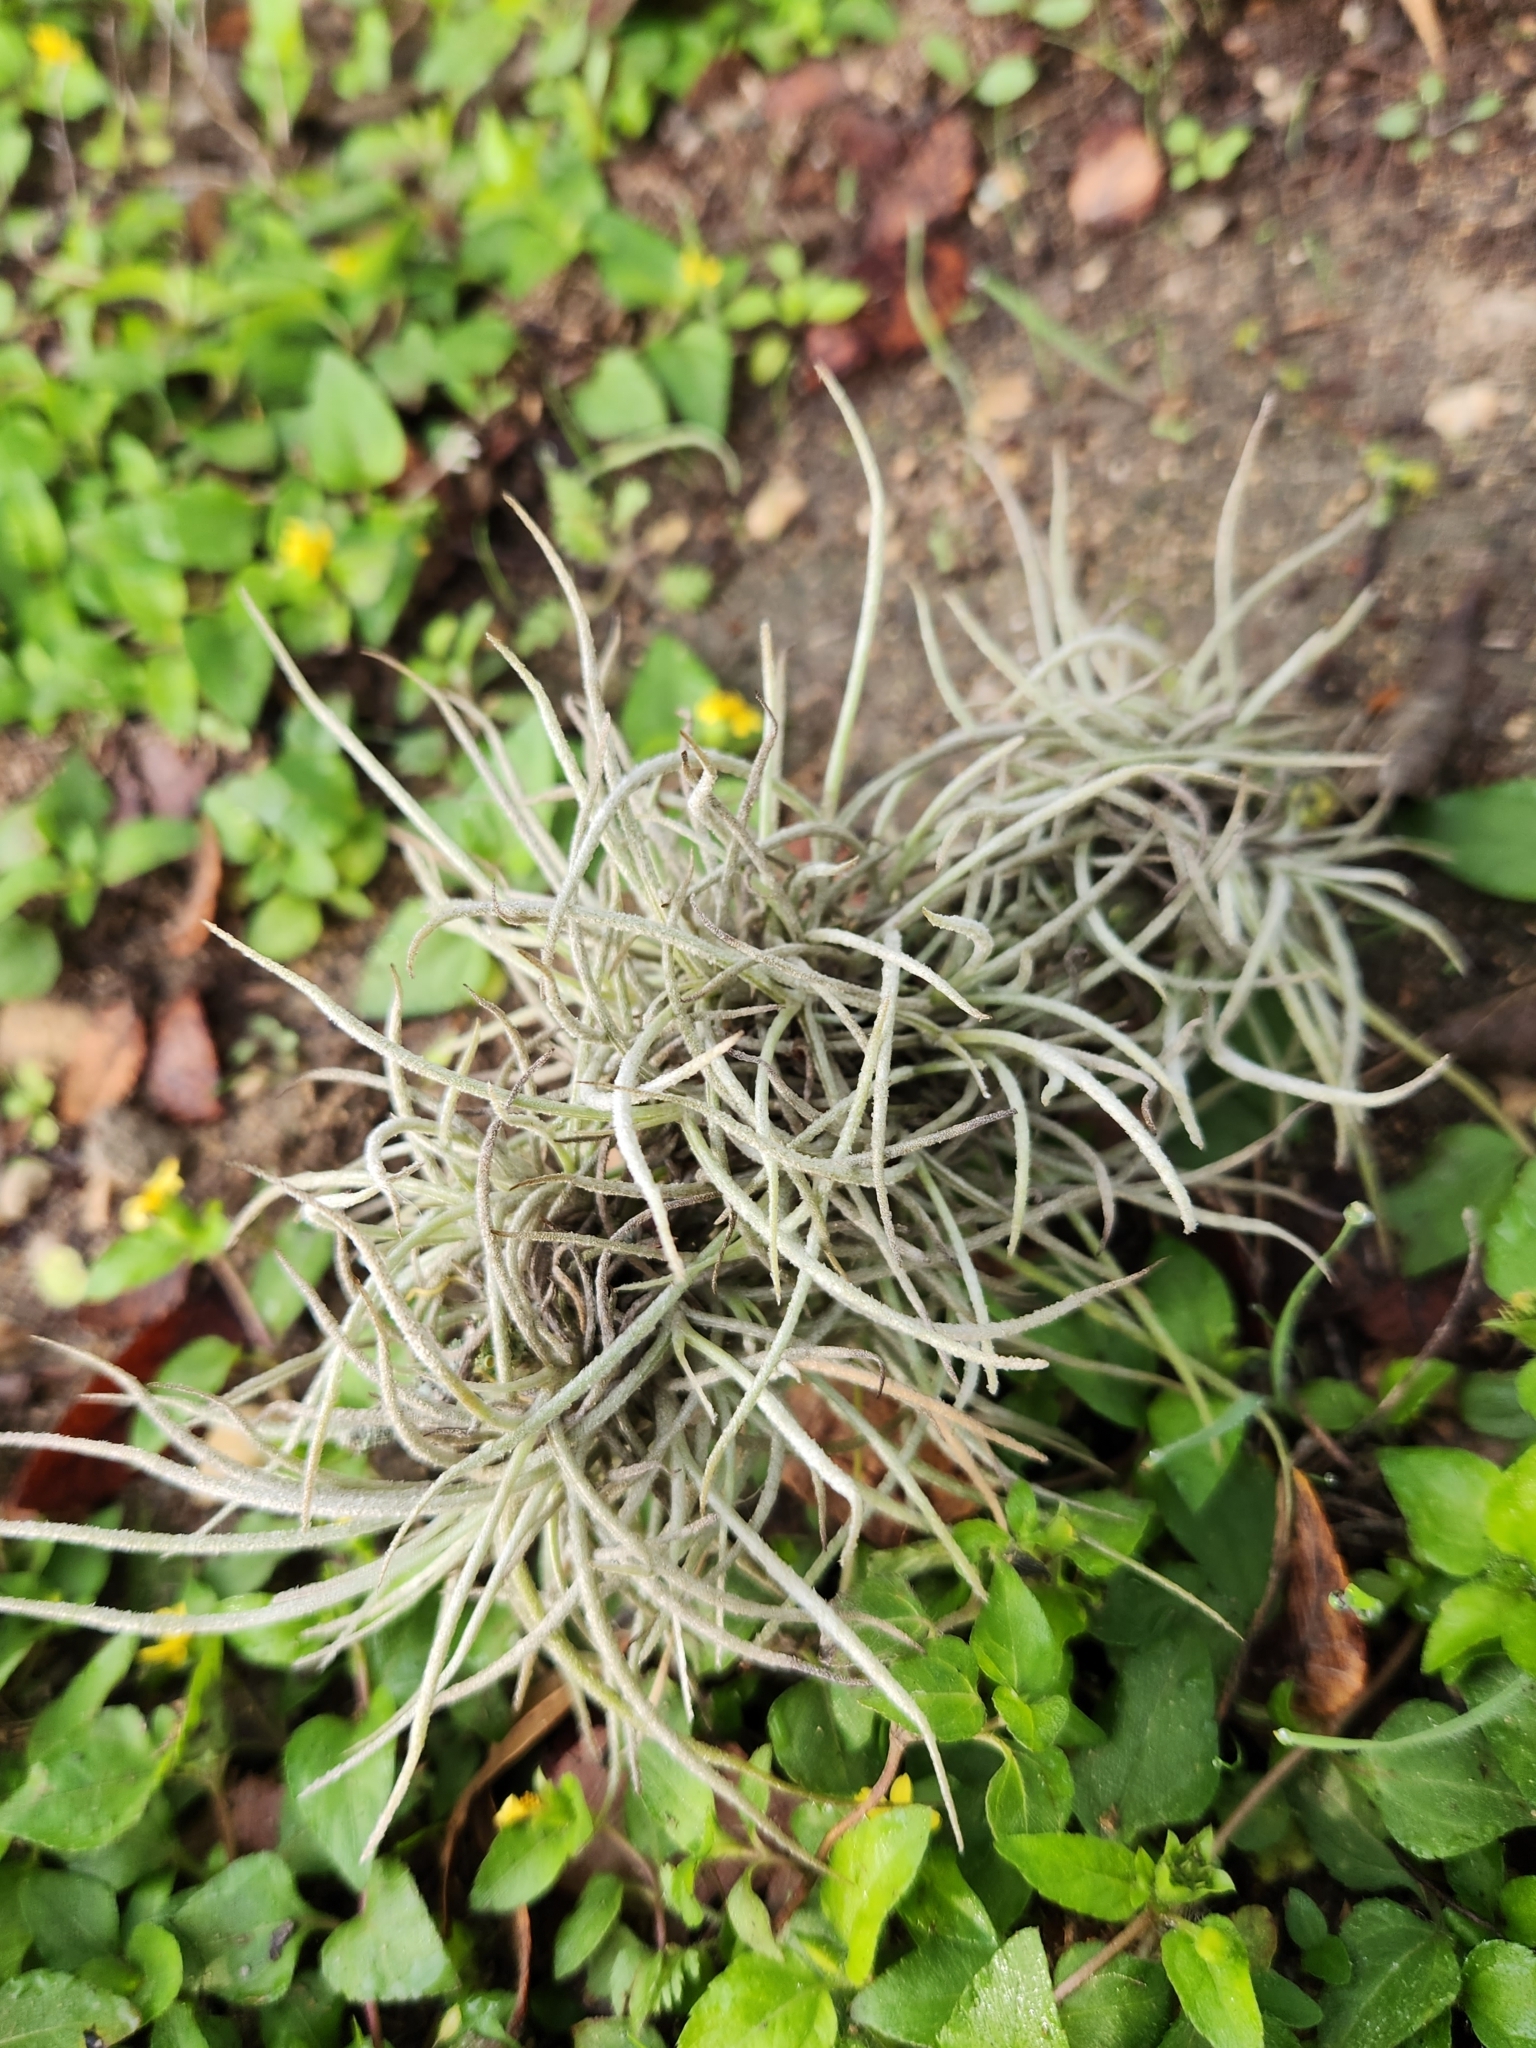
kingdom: Plantae
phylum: Tracheophyta
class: Liliopsida
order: Poales
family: Bromeliaceae
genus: Tillandsia
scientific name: Tillandsia recurvata
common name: Small ballmoss
